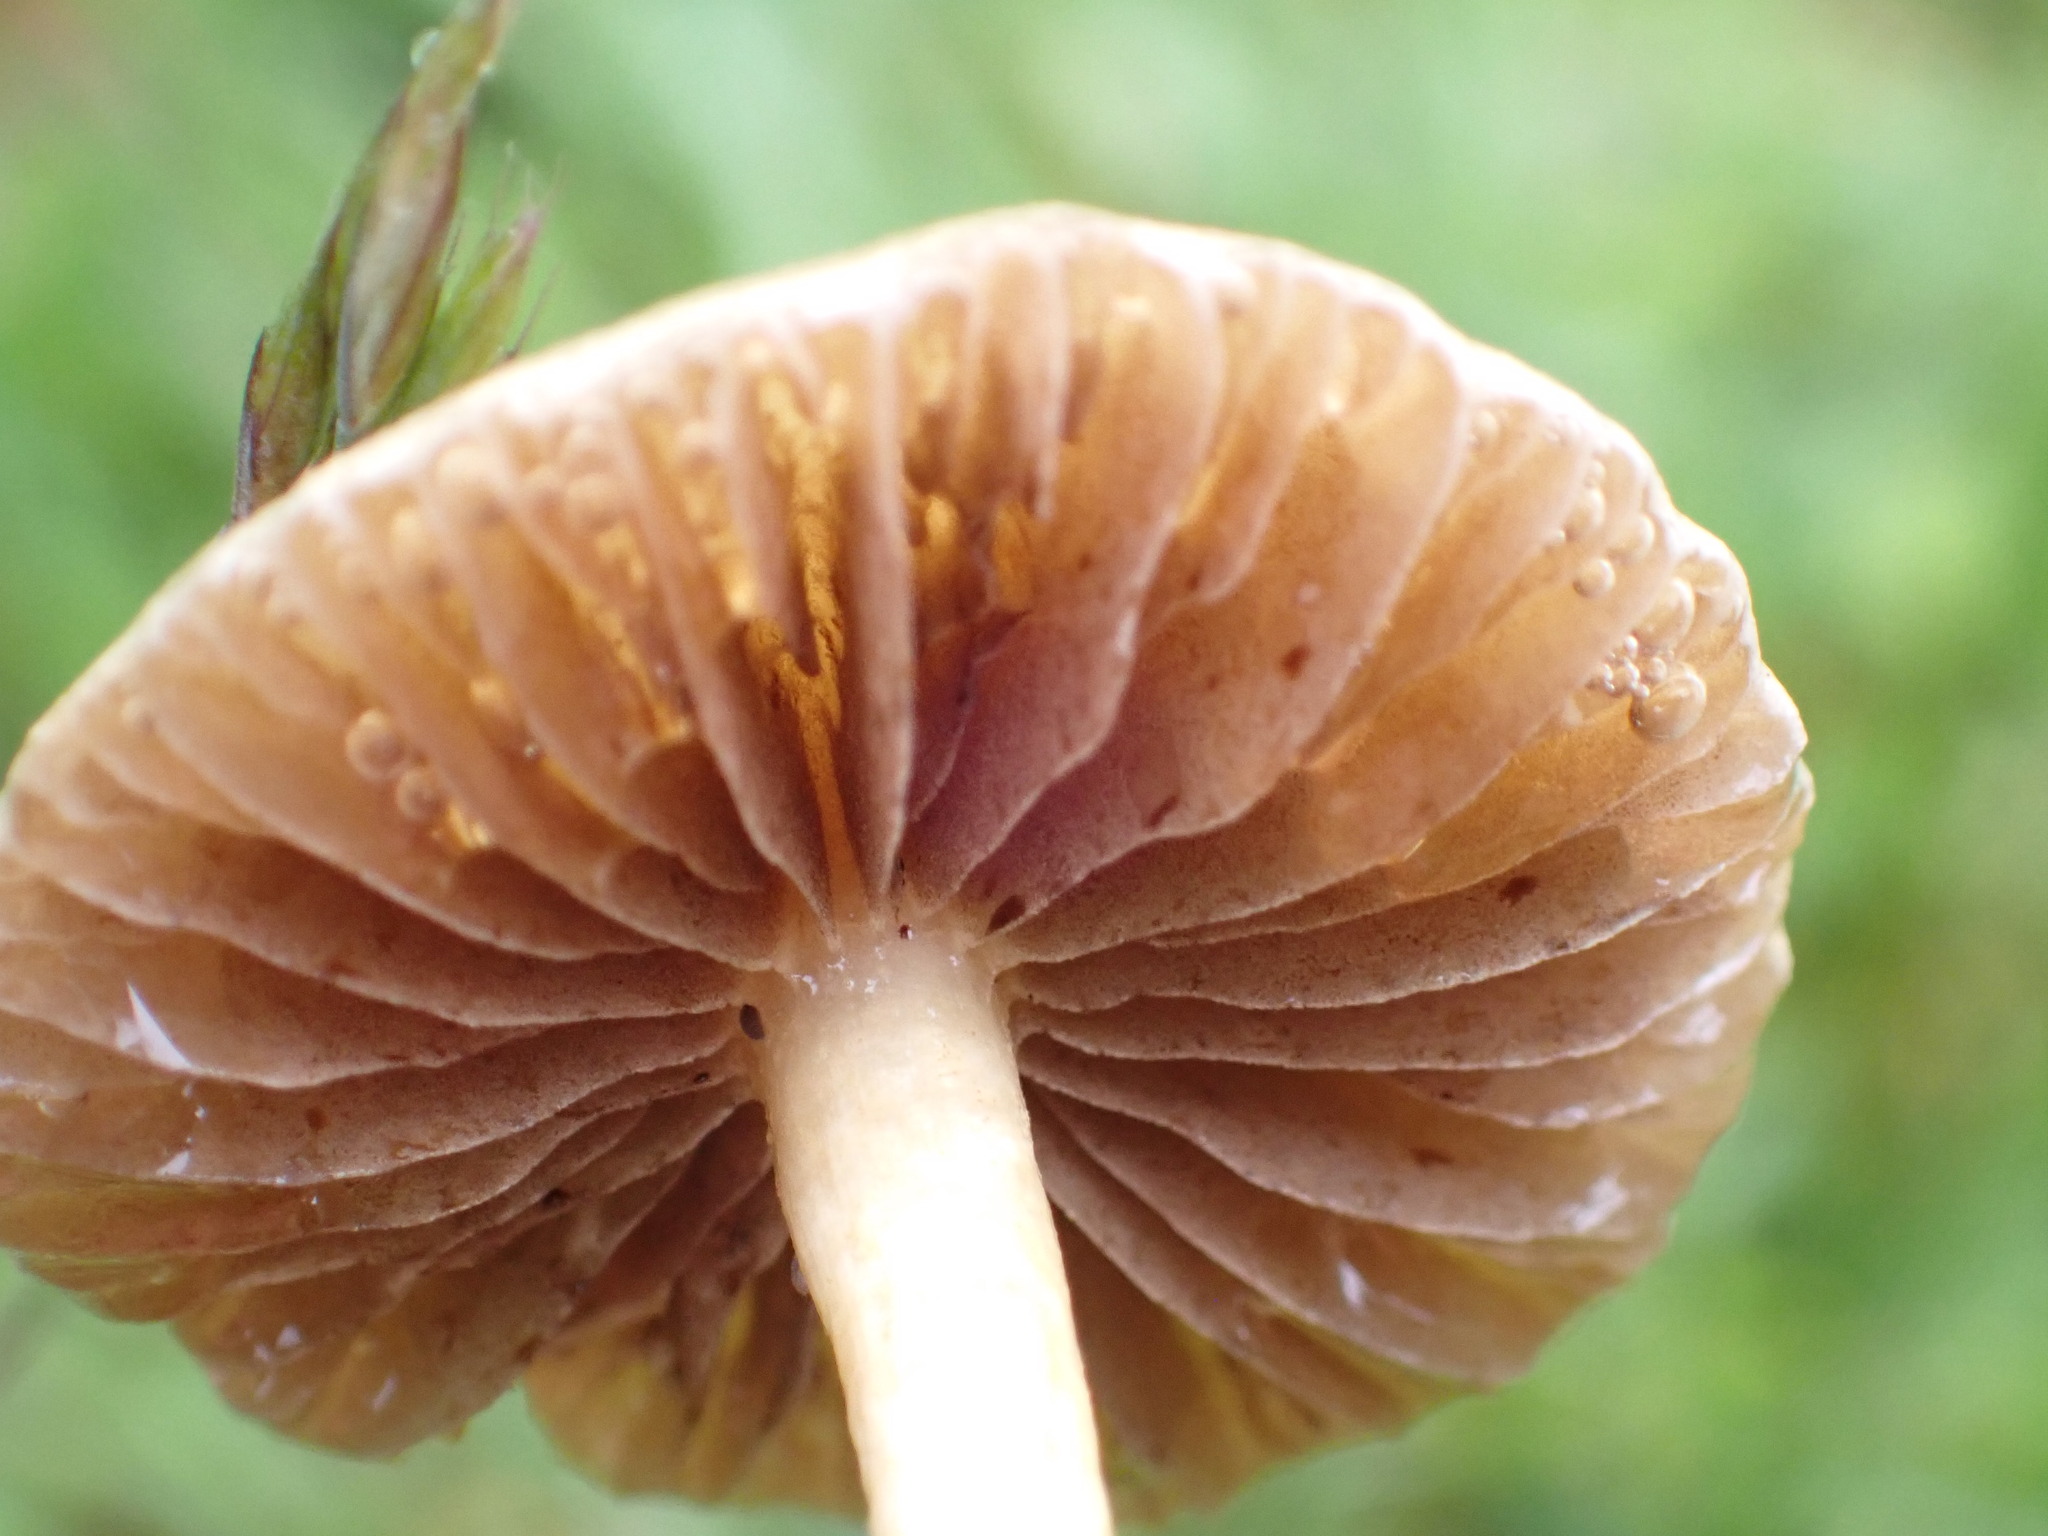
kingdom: Fungi
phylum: Basidiomycota
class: Agaricomycetes
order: Agaricales
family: Strophariaceae
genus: Agrocybe
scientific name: Agrocybe pediades
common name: Common fieldcap
